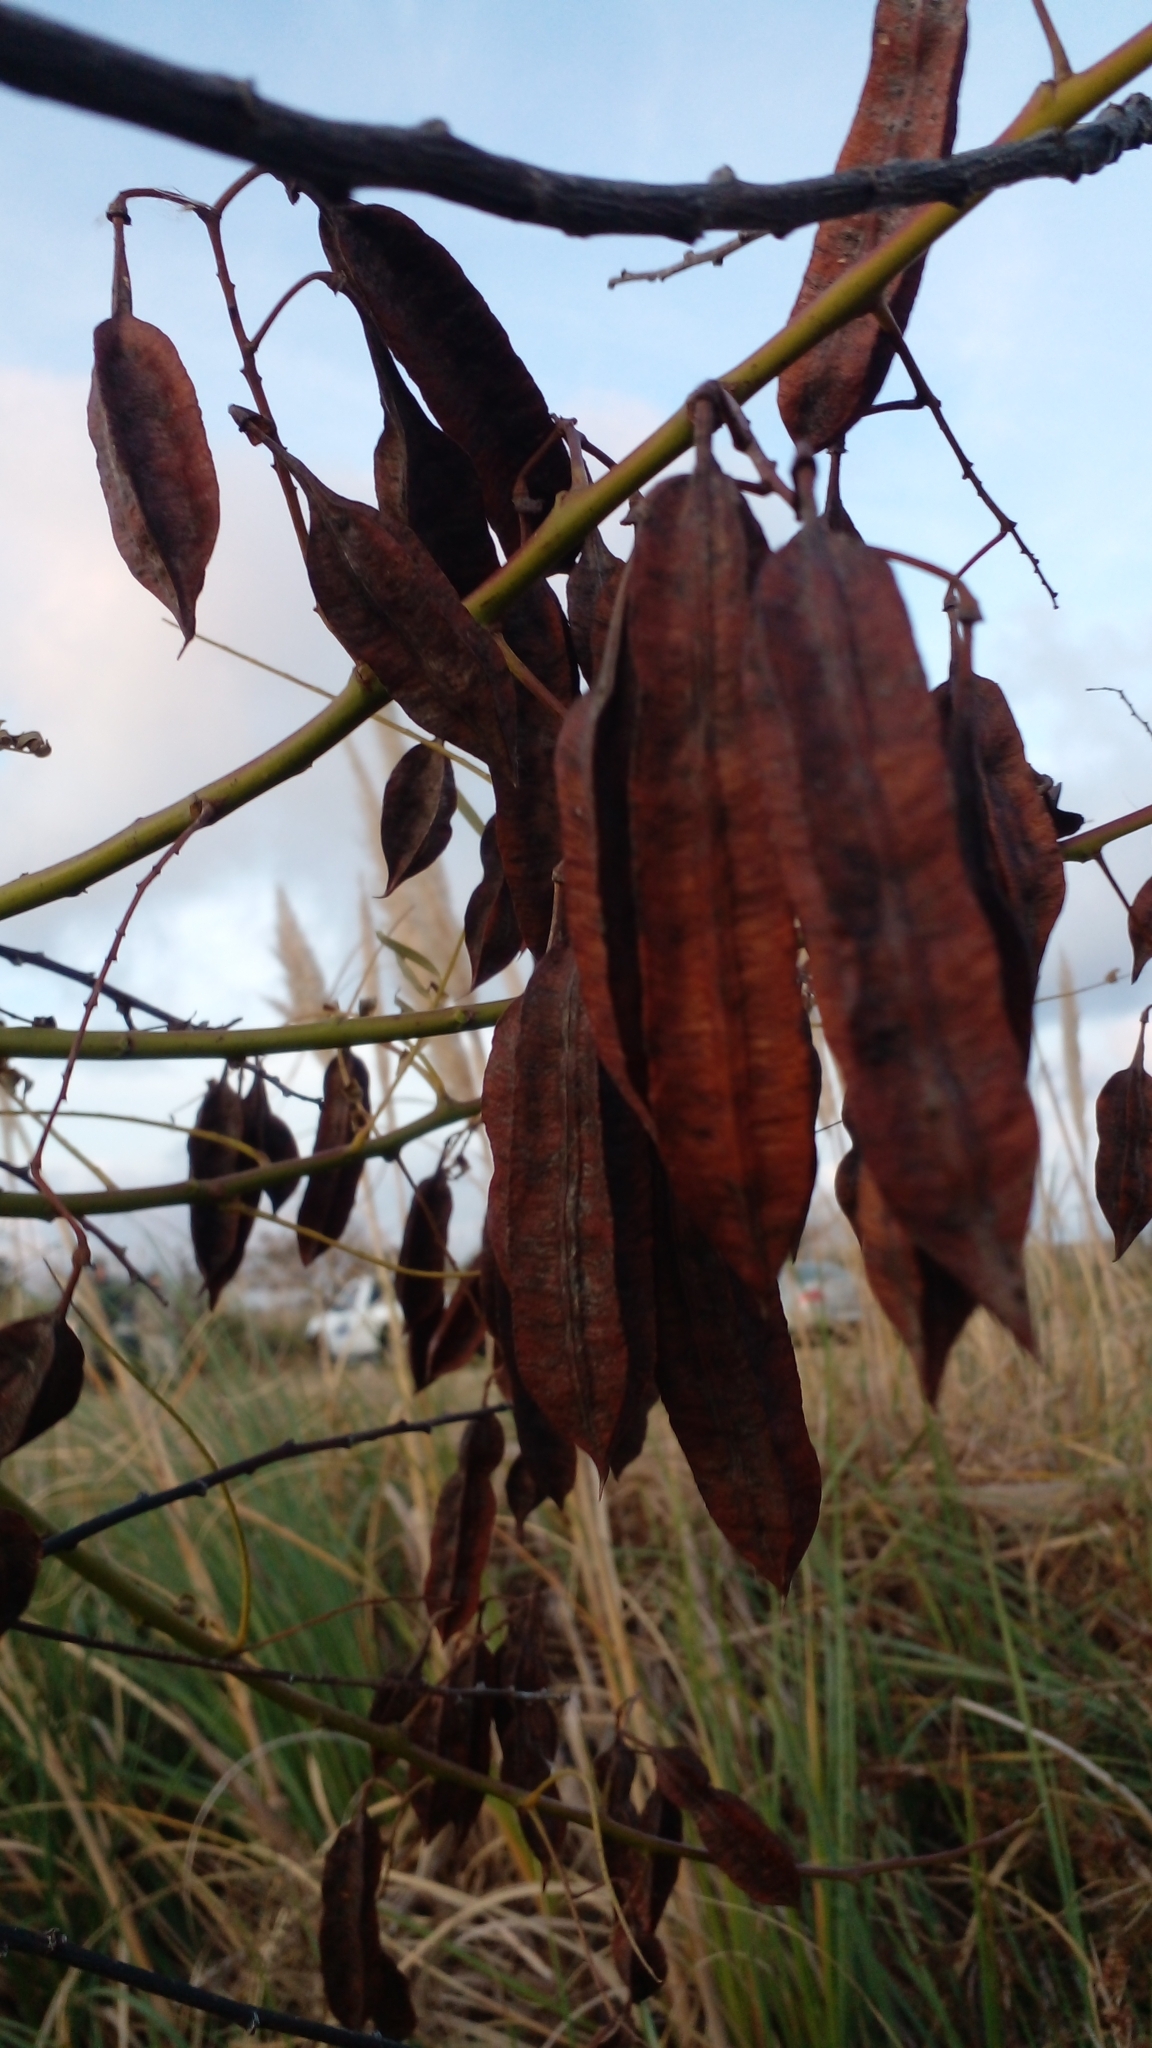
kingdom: Plantae
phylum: Tracheophyta
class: Magnoliopsida
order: Fabales
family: Fabaceae
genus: Sesbania
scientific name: Sesbania punicea
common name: Rattlebox
